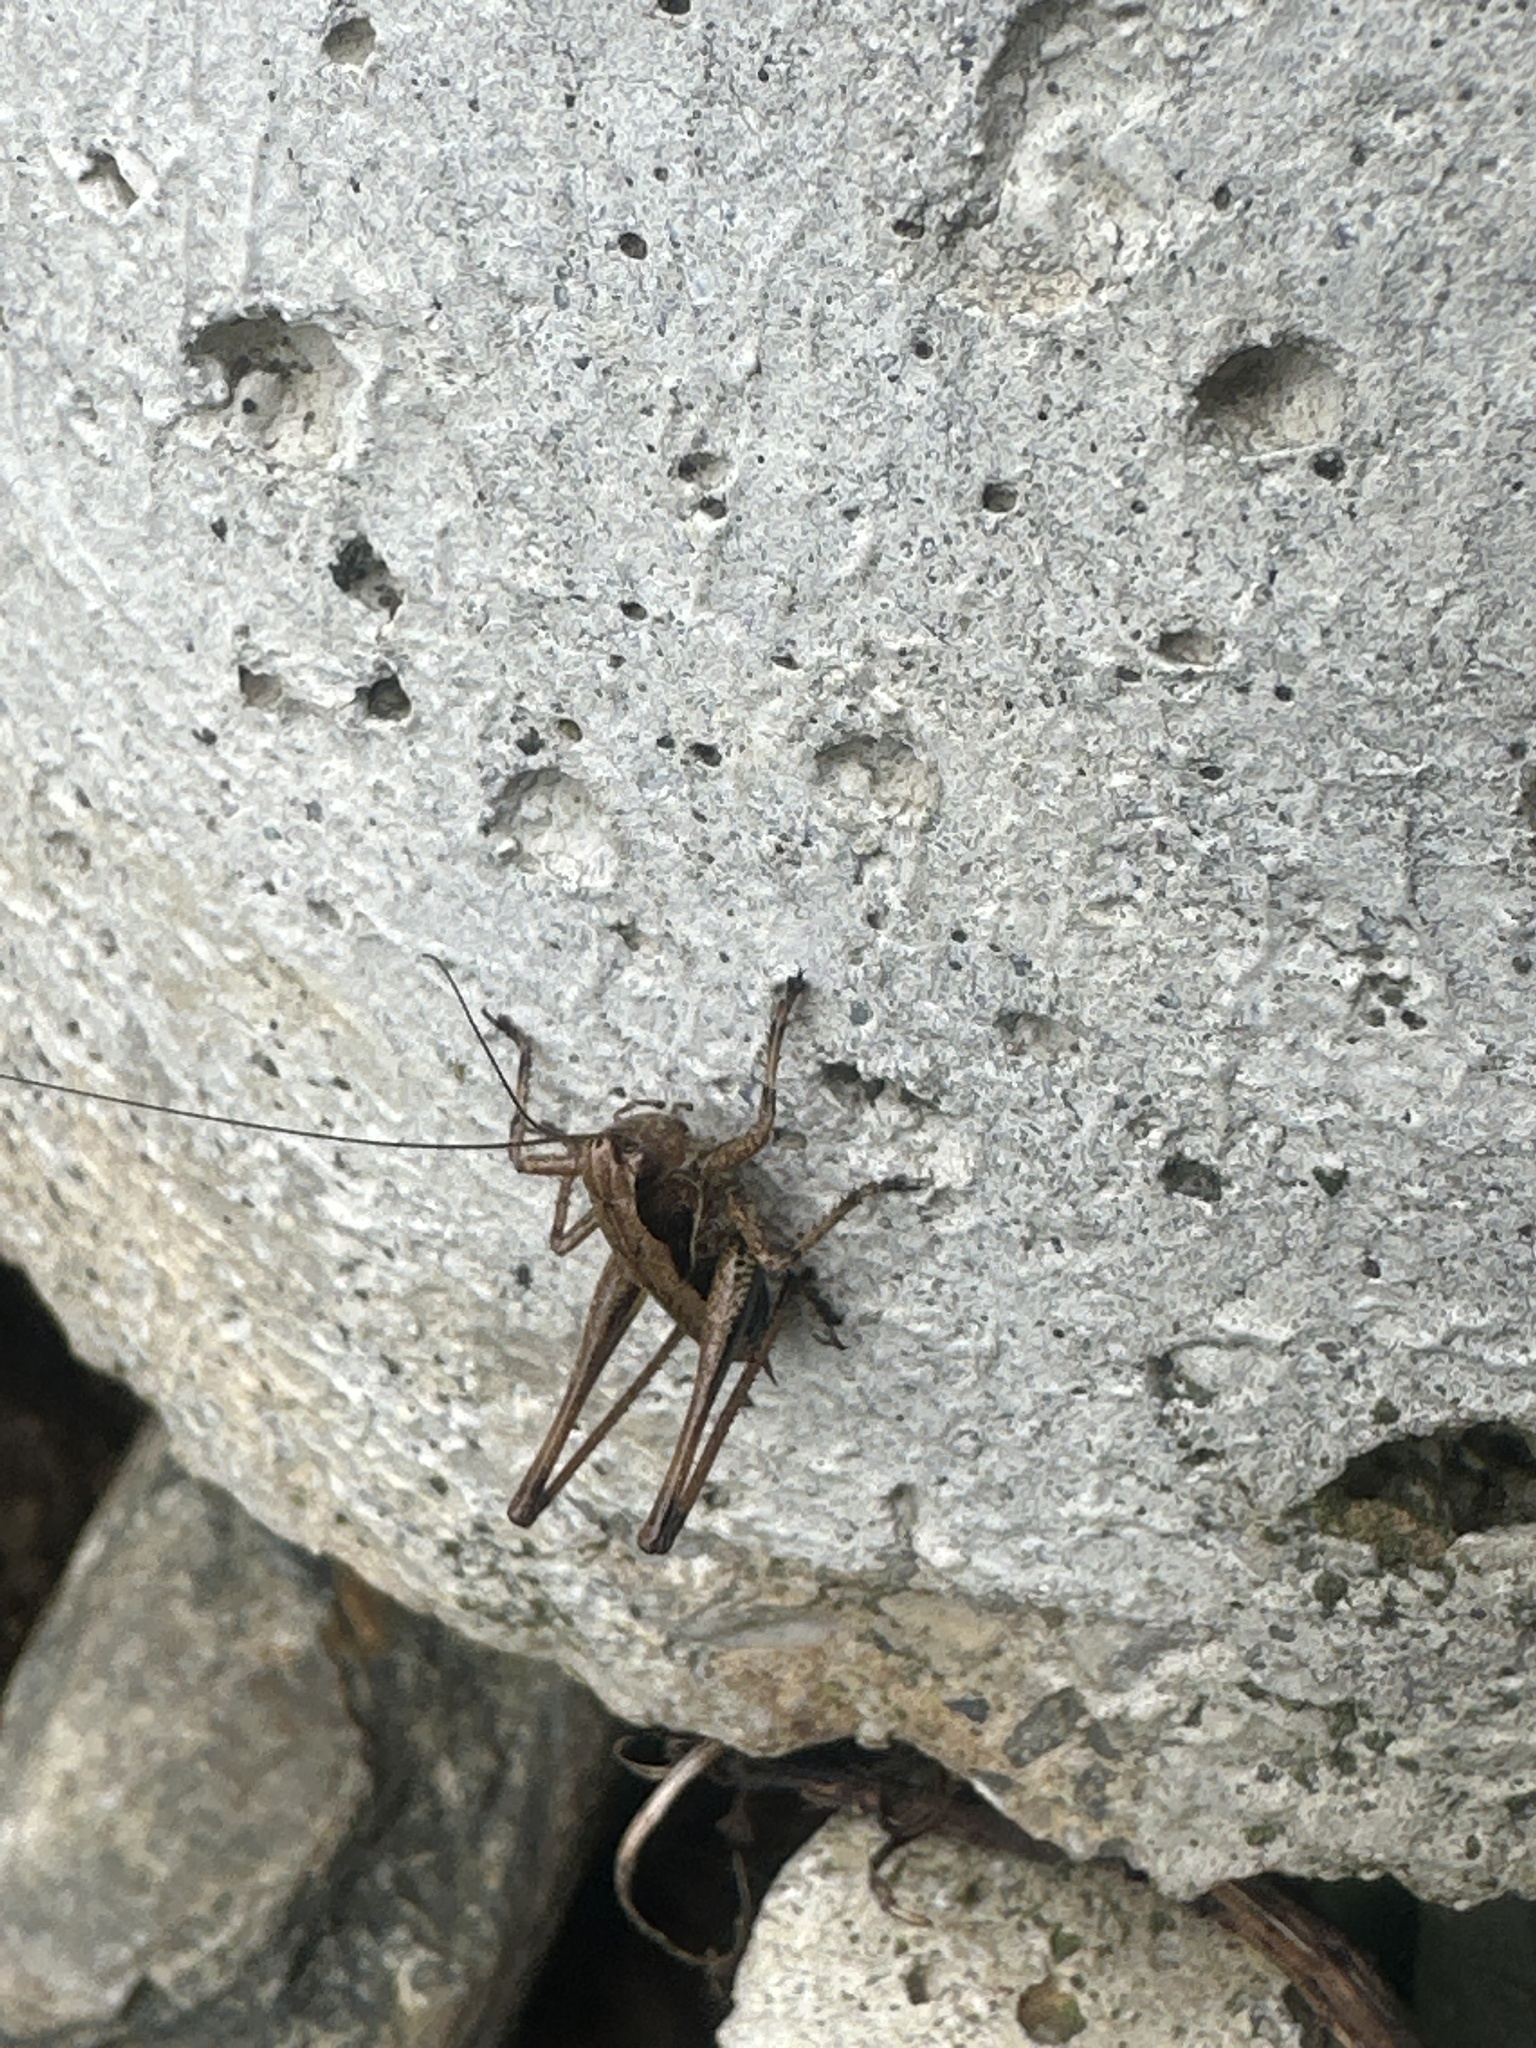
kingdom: Animalia
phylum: Arthropoda
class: Insecta
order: Orthoptera
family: Tettigoniidae
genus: Pholidoptera
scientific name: Pholidoptera griseoaptera
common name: Dark bush-cricket
